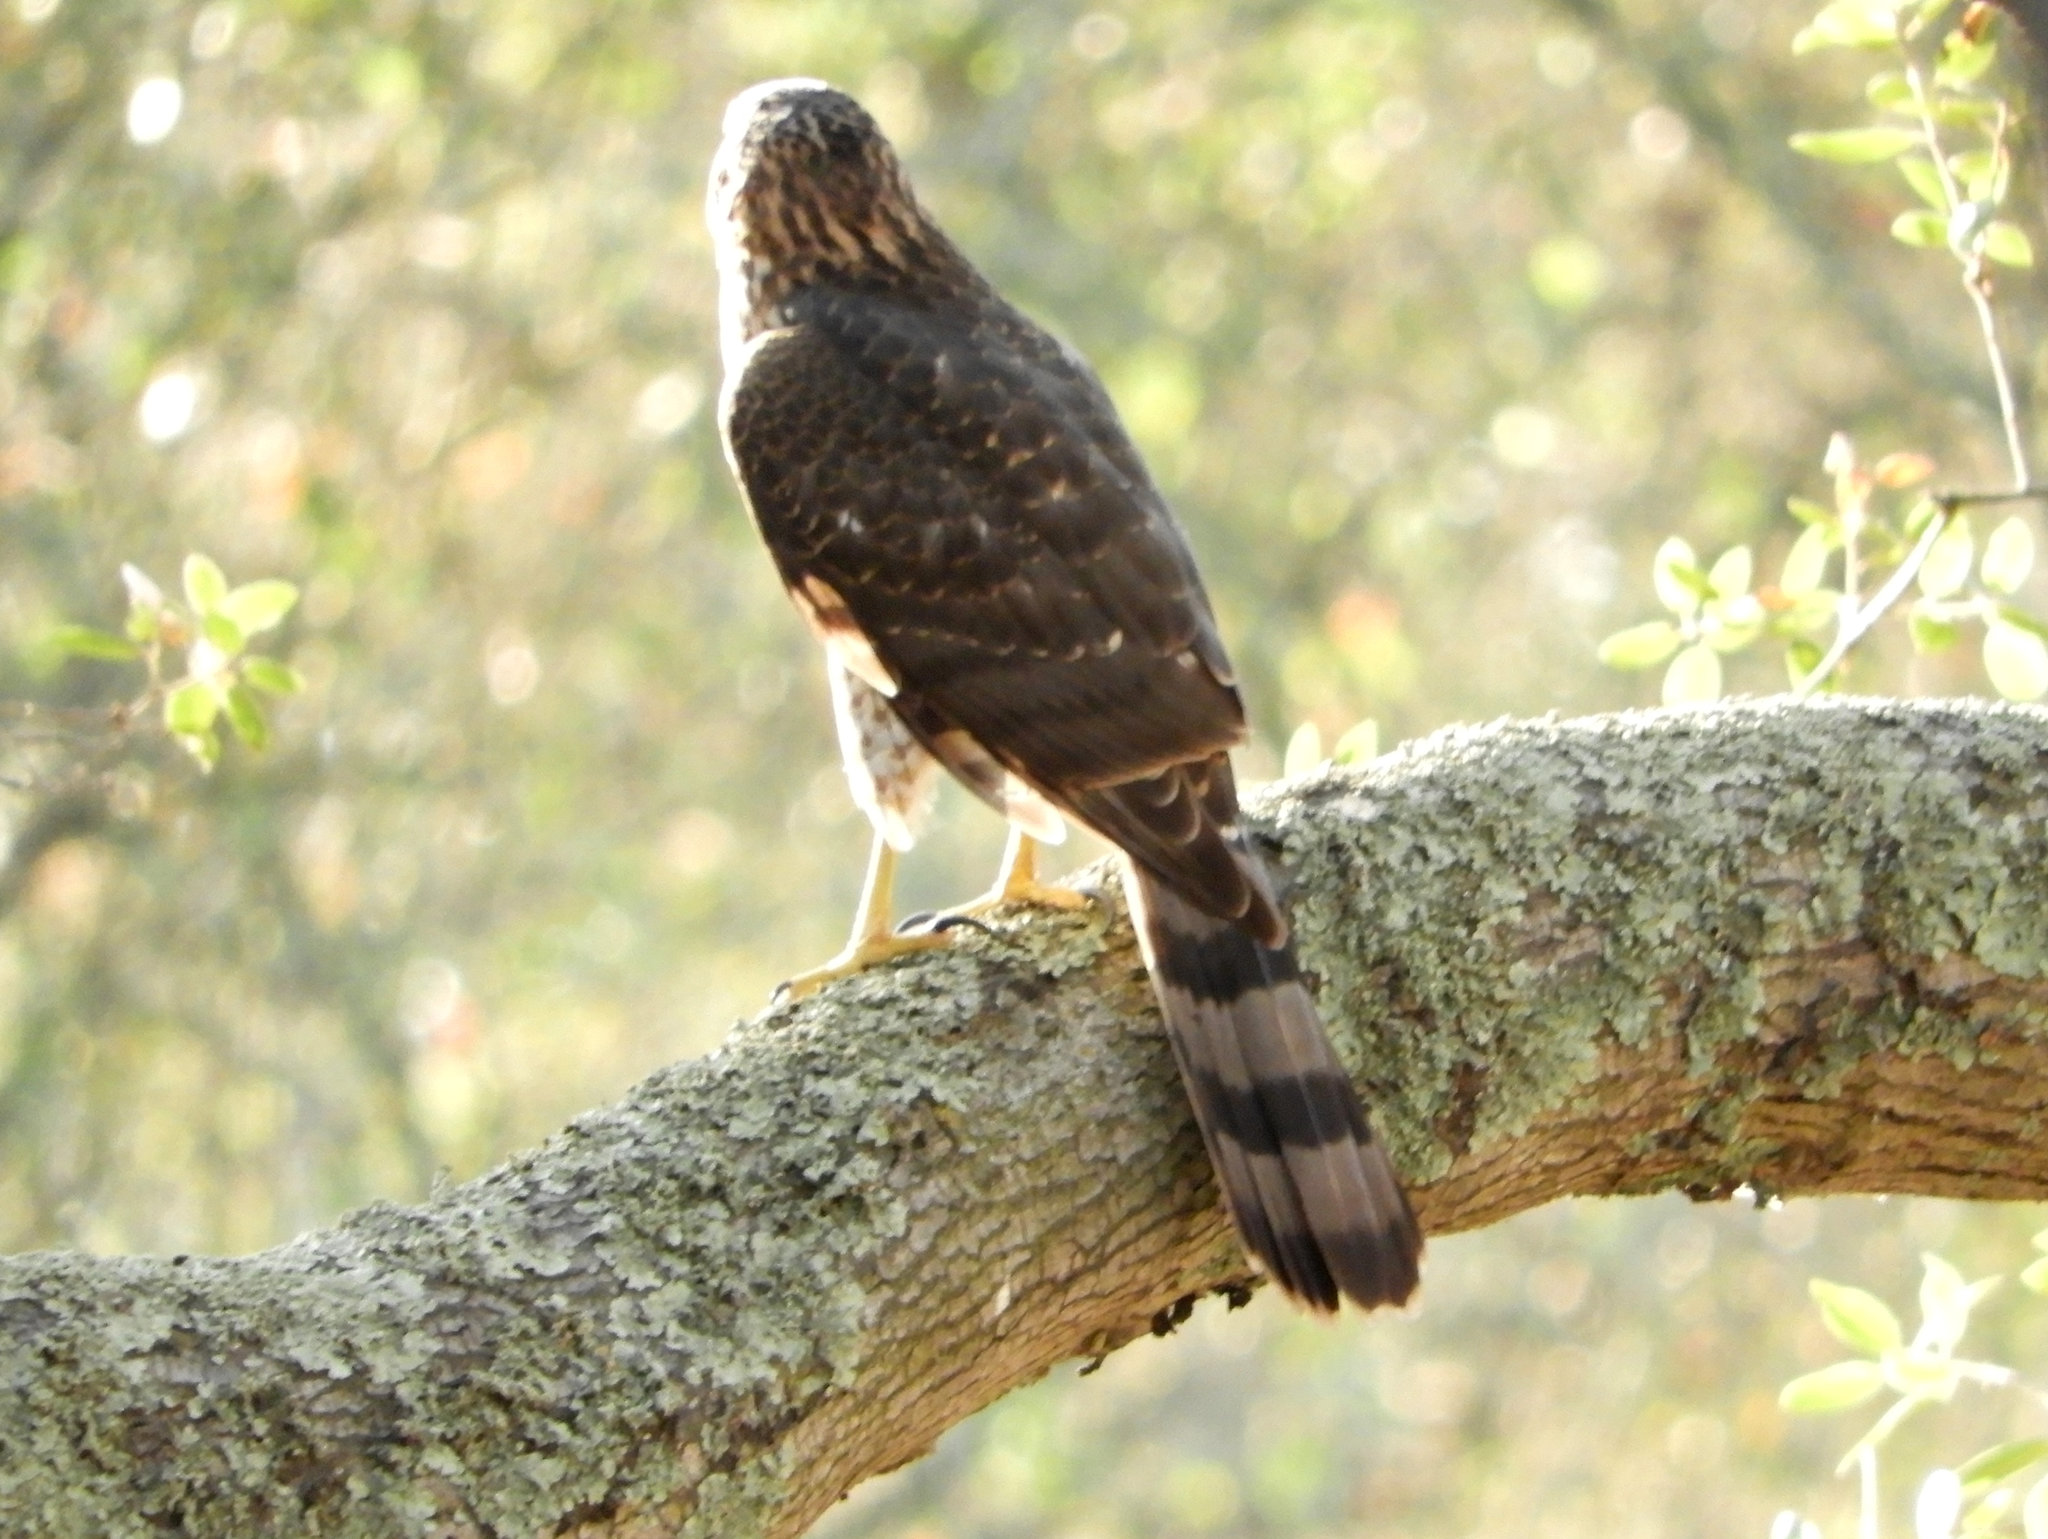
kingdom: Animalia
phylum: Chordata
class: Aves
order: Accipitriformes
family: Accipitridae
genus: Accipiter
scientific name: Accipiter cooperii
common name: Cooper's hawk
